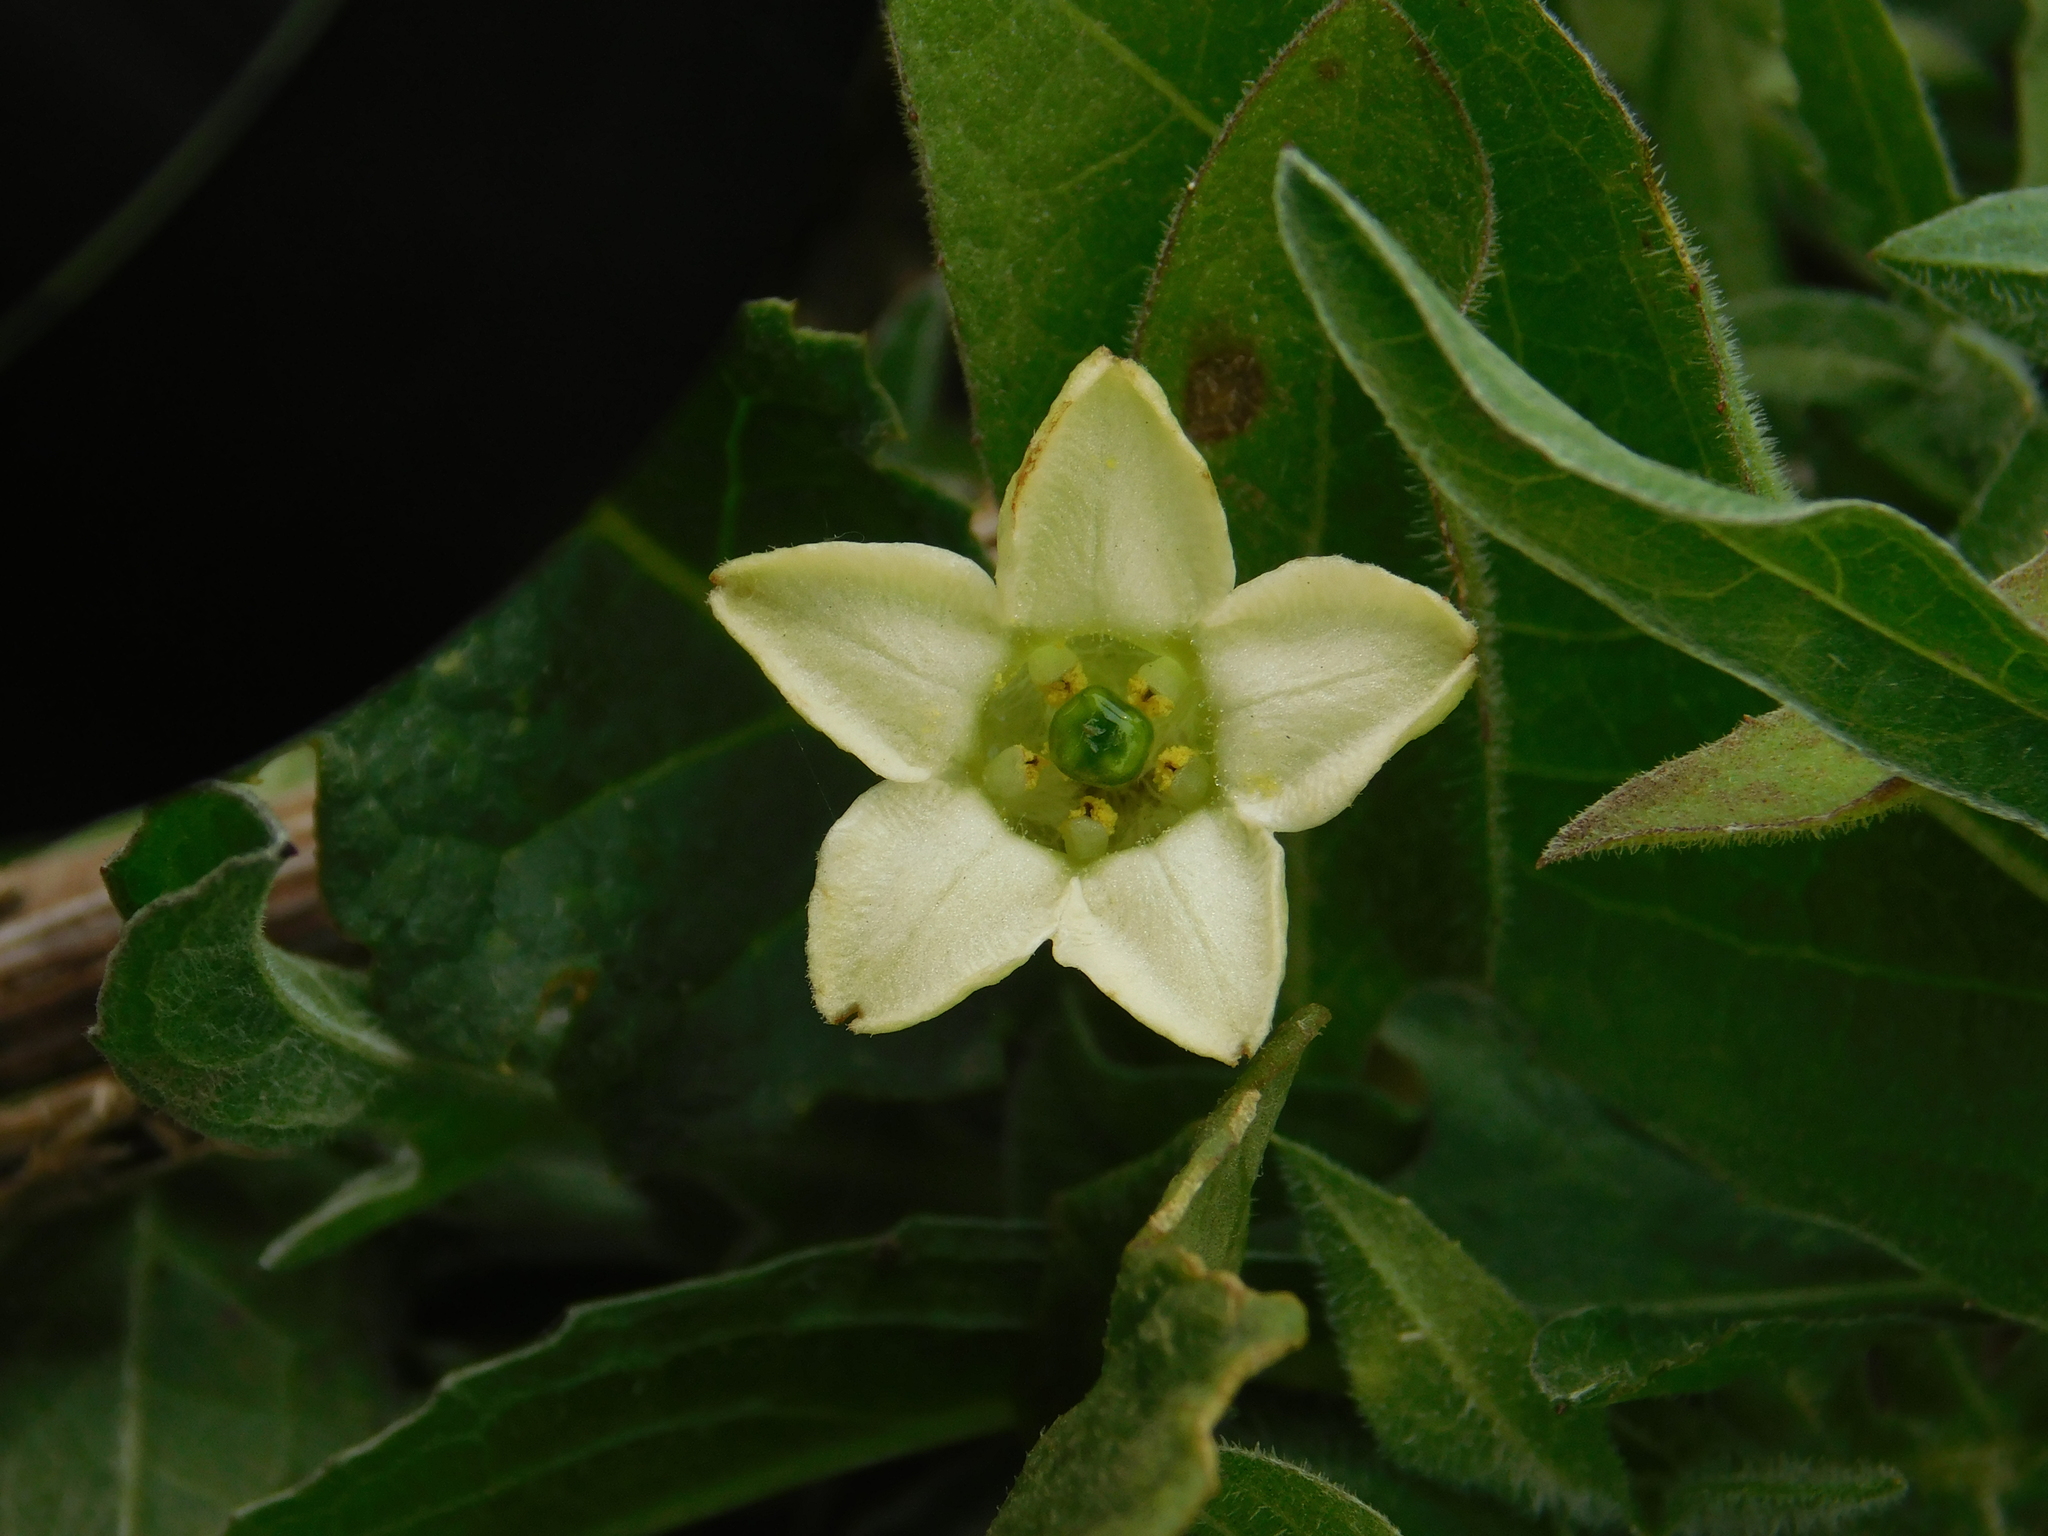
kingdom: Plantae
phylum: Tracheophyta
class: Magnoliopsida
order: Solanales
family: Solanaceae
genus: Jaborosa
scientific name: Jaborosa runcinata
